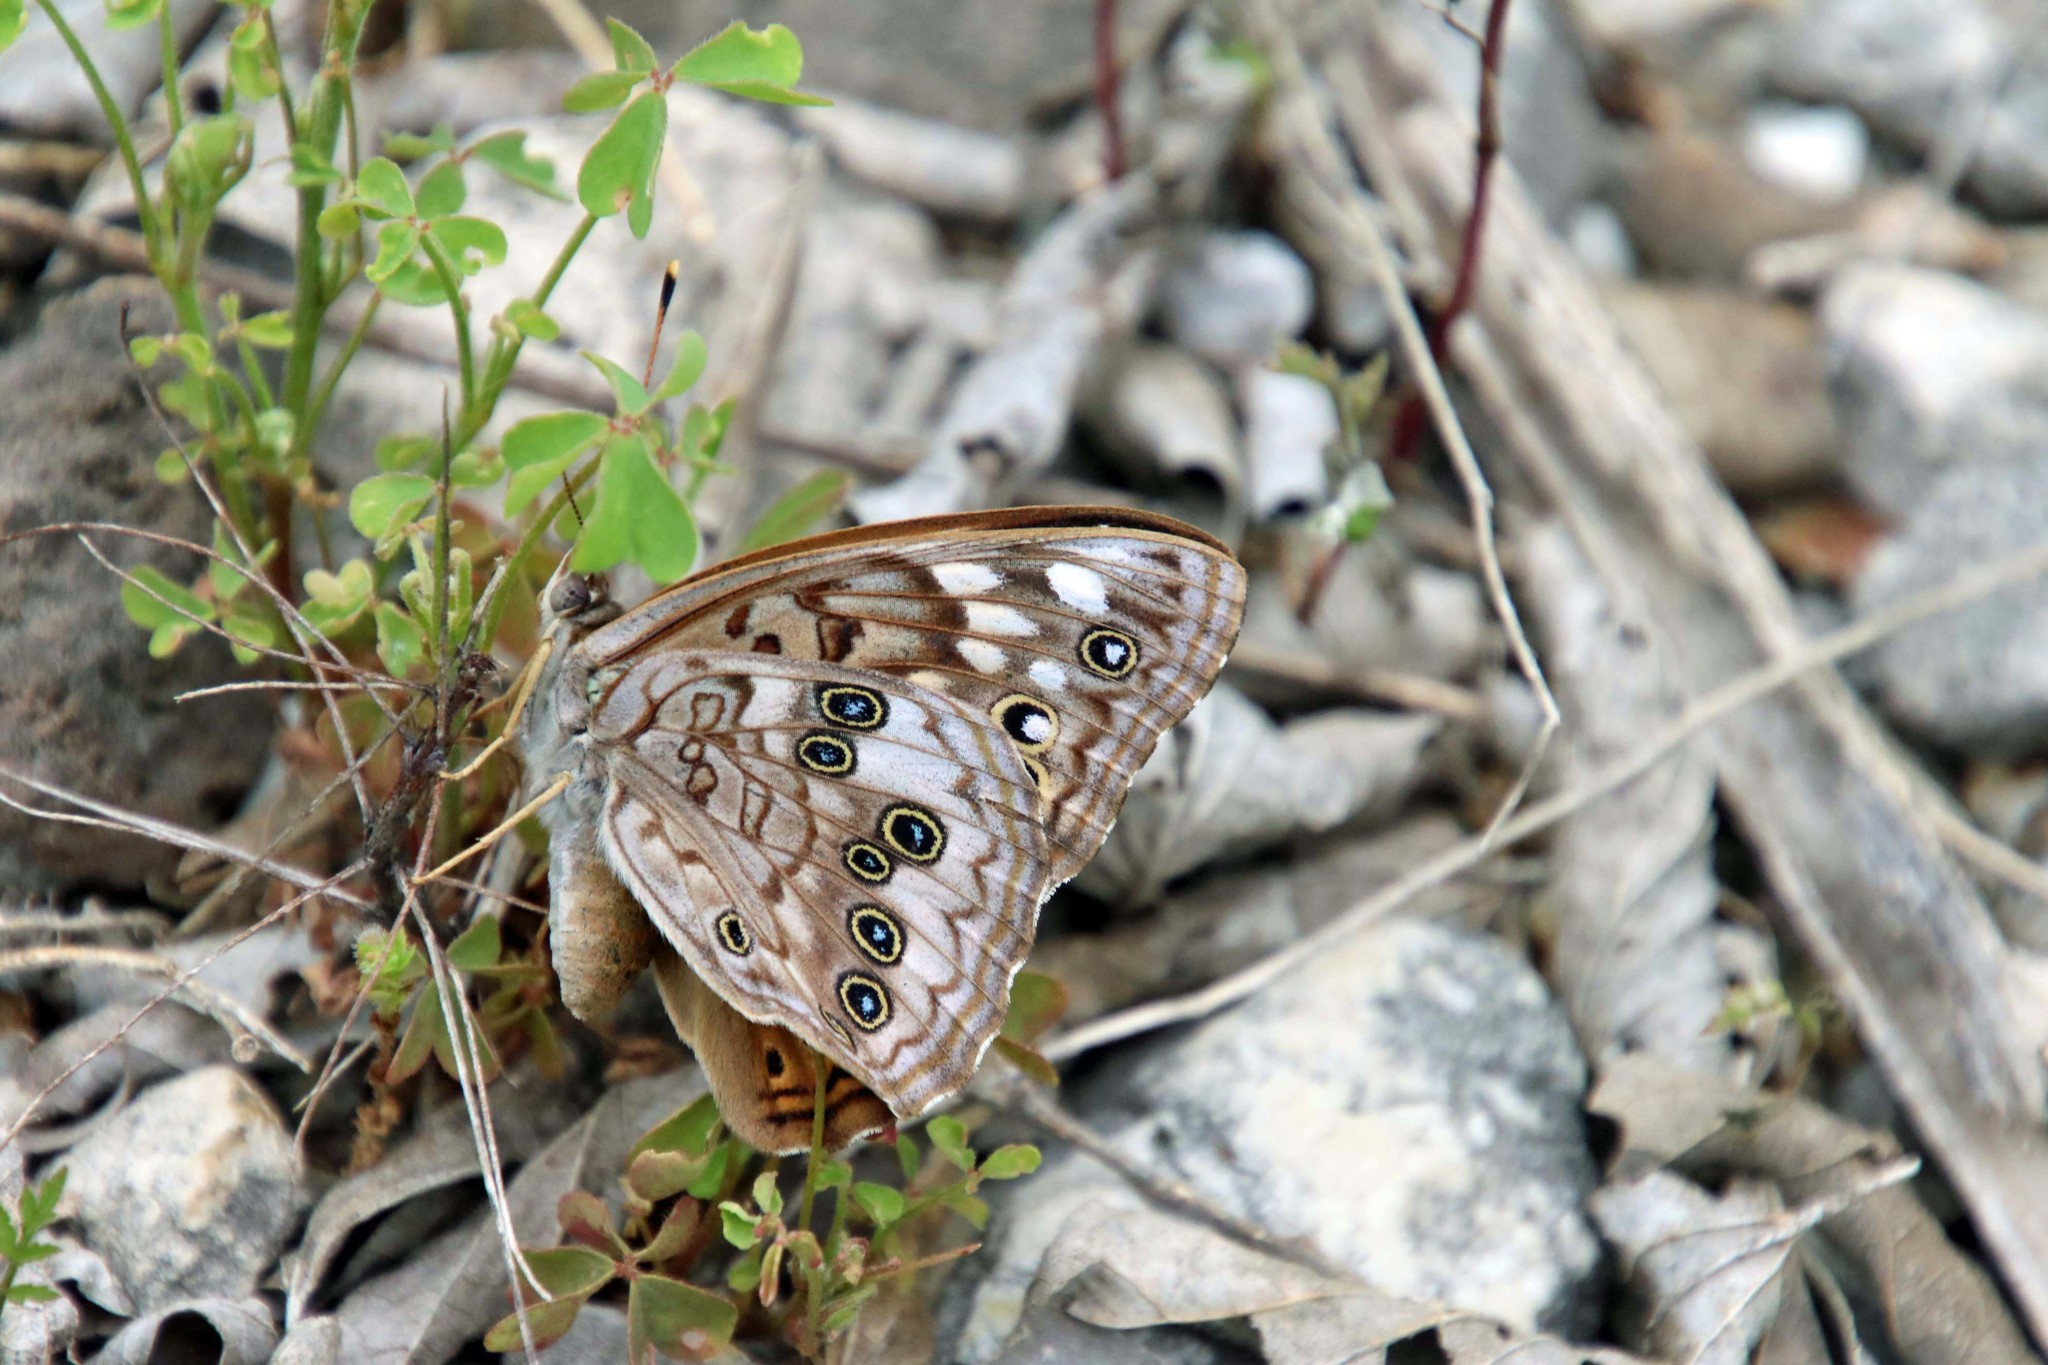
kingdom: Animalia
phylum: Arthropoda
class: Insecta
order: Lepidoptera
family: Nymphalidae
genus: Asterocampa
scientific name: Asterocampa celtis
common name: Hackberry emperor
